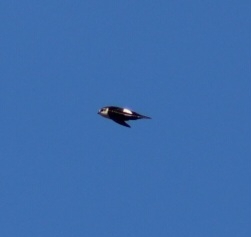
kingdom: Animalia
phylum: Chordata
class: Aves
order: Apodiformes
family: Apodidae
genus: Aeronautes
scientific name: Aeronautes saxatalis
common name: White-throated swift
